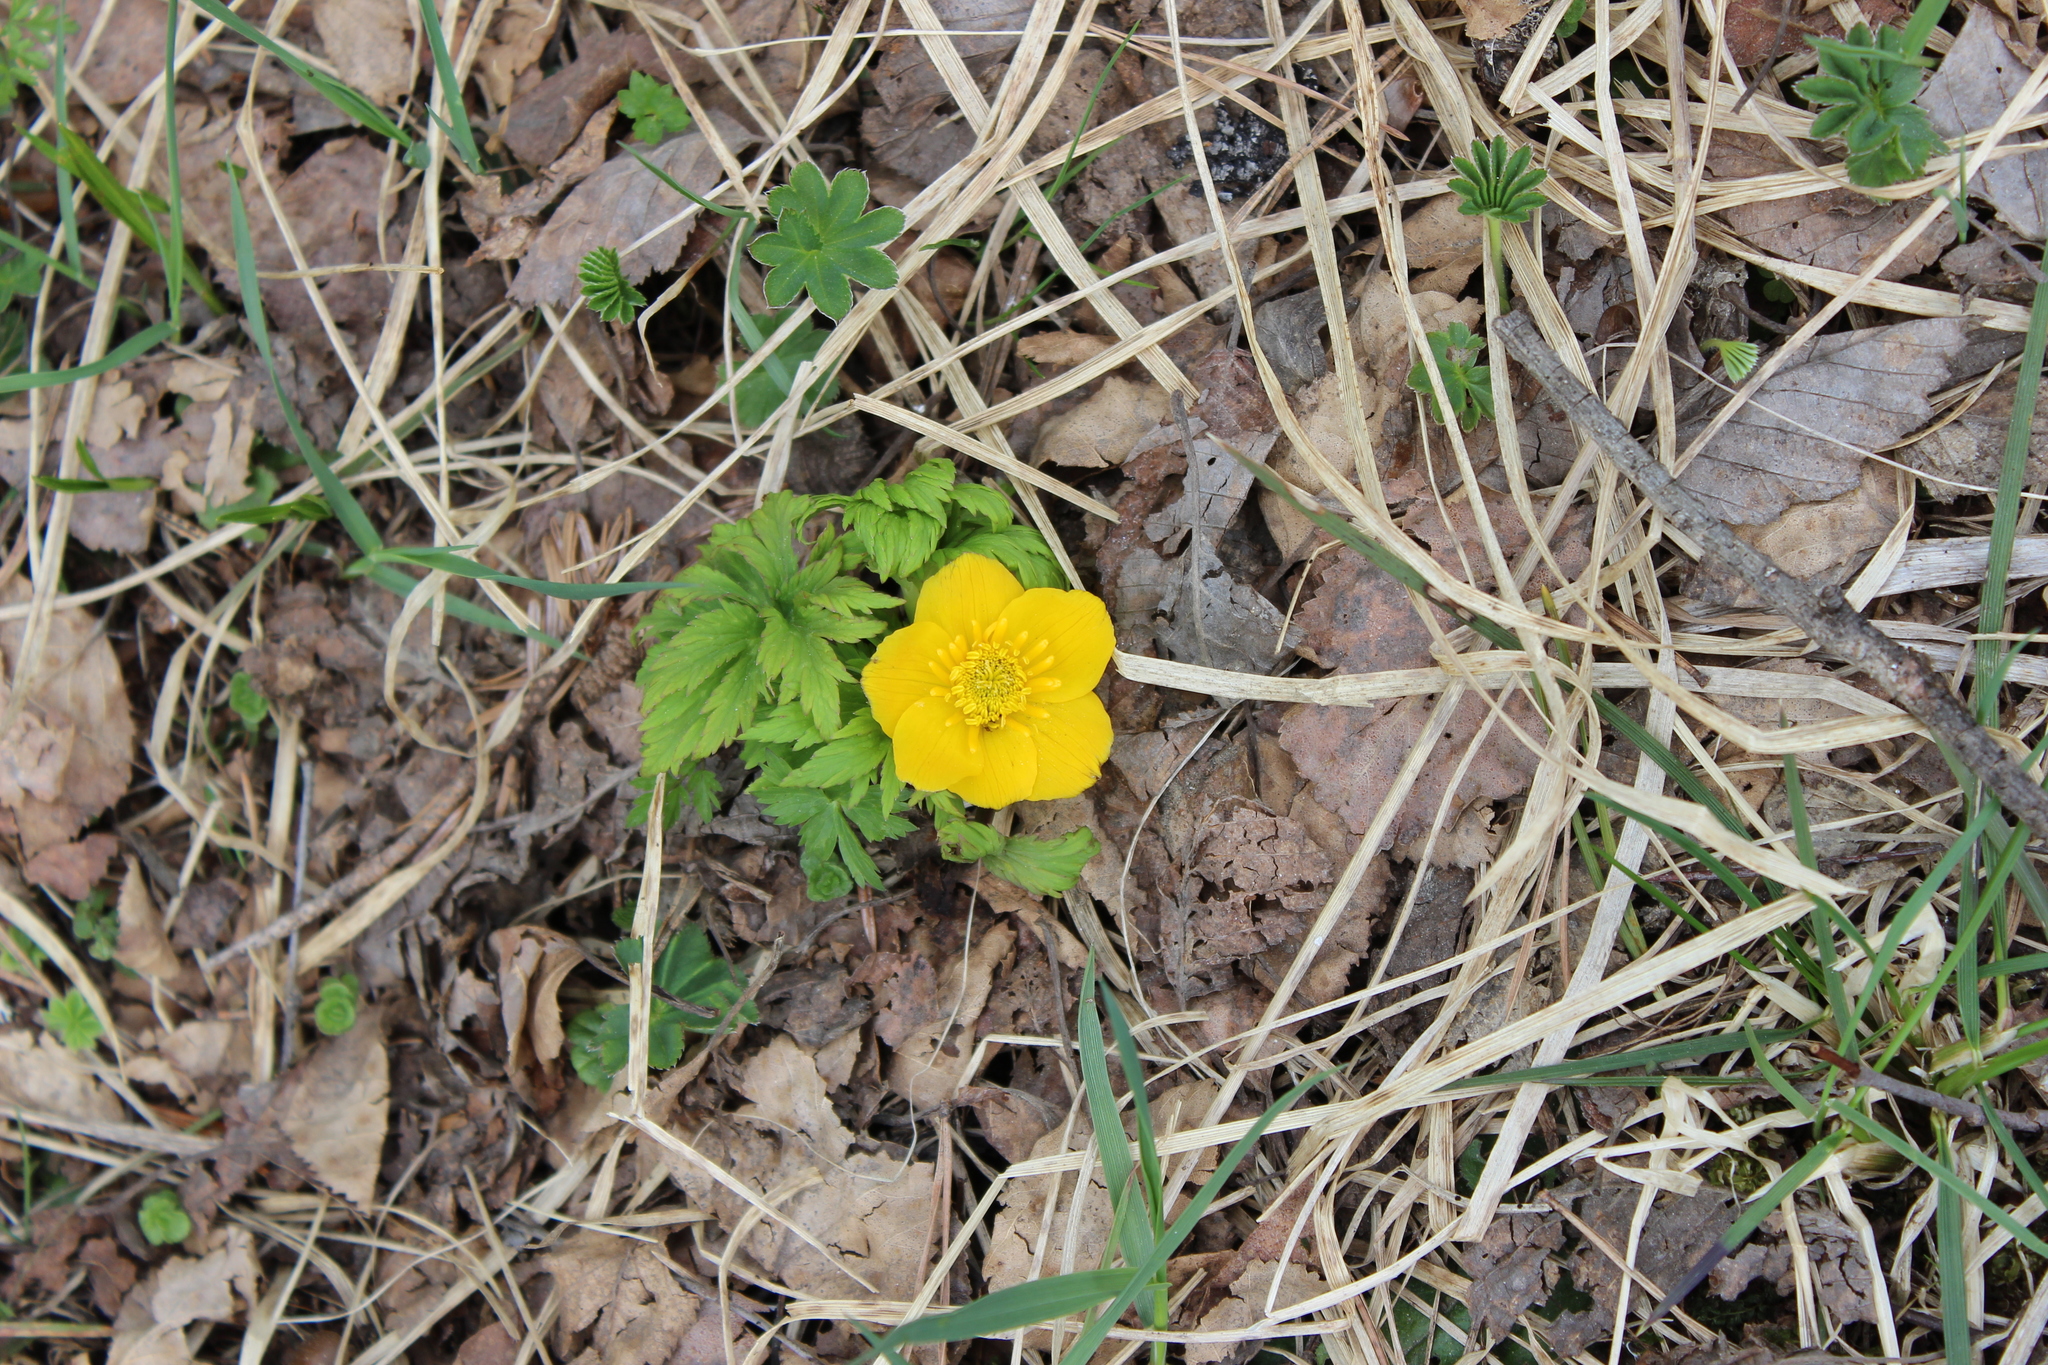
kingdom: Plantae
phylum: Tracheophyta
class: Magnoliopsida
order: Ranunculales
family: Ranunculaceae
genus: Trollius
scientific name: Trollius ranunculinus
